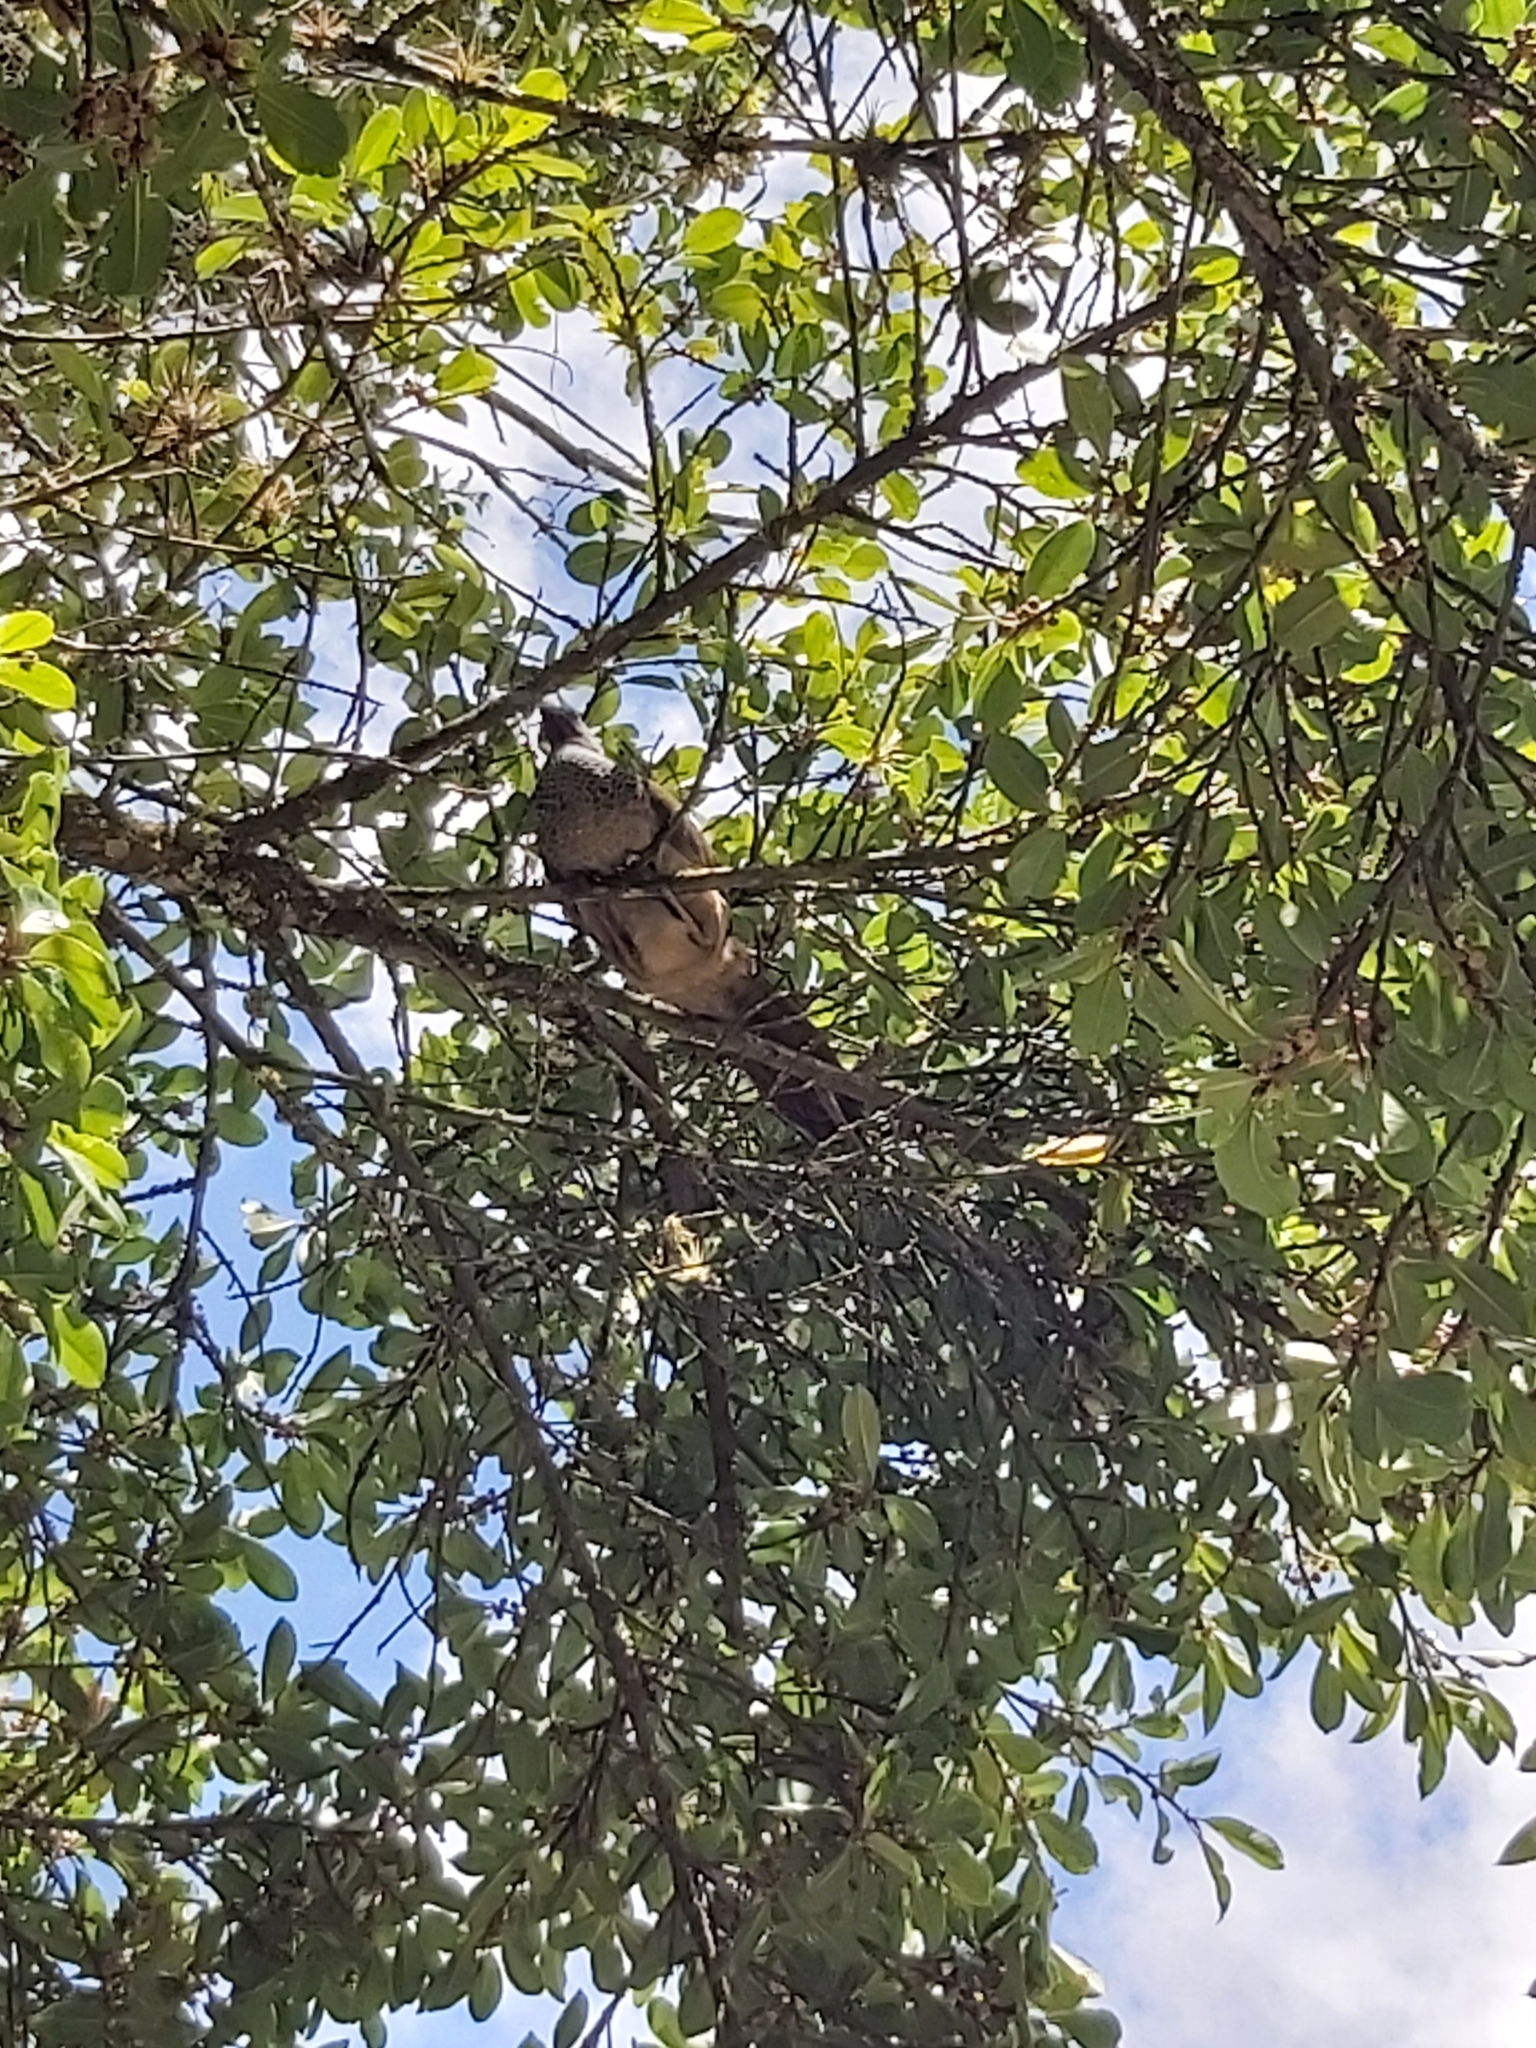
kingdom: Animalia
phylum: Chordata
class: Aves
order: Galliformes
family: Cracidae
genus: Ortalis
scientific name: Ortalis columbiana
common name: Colombian chachalaca
